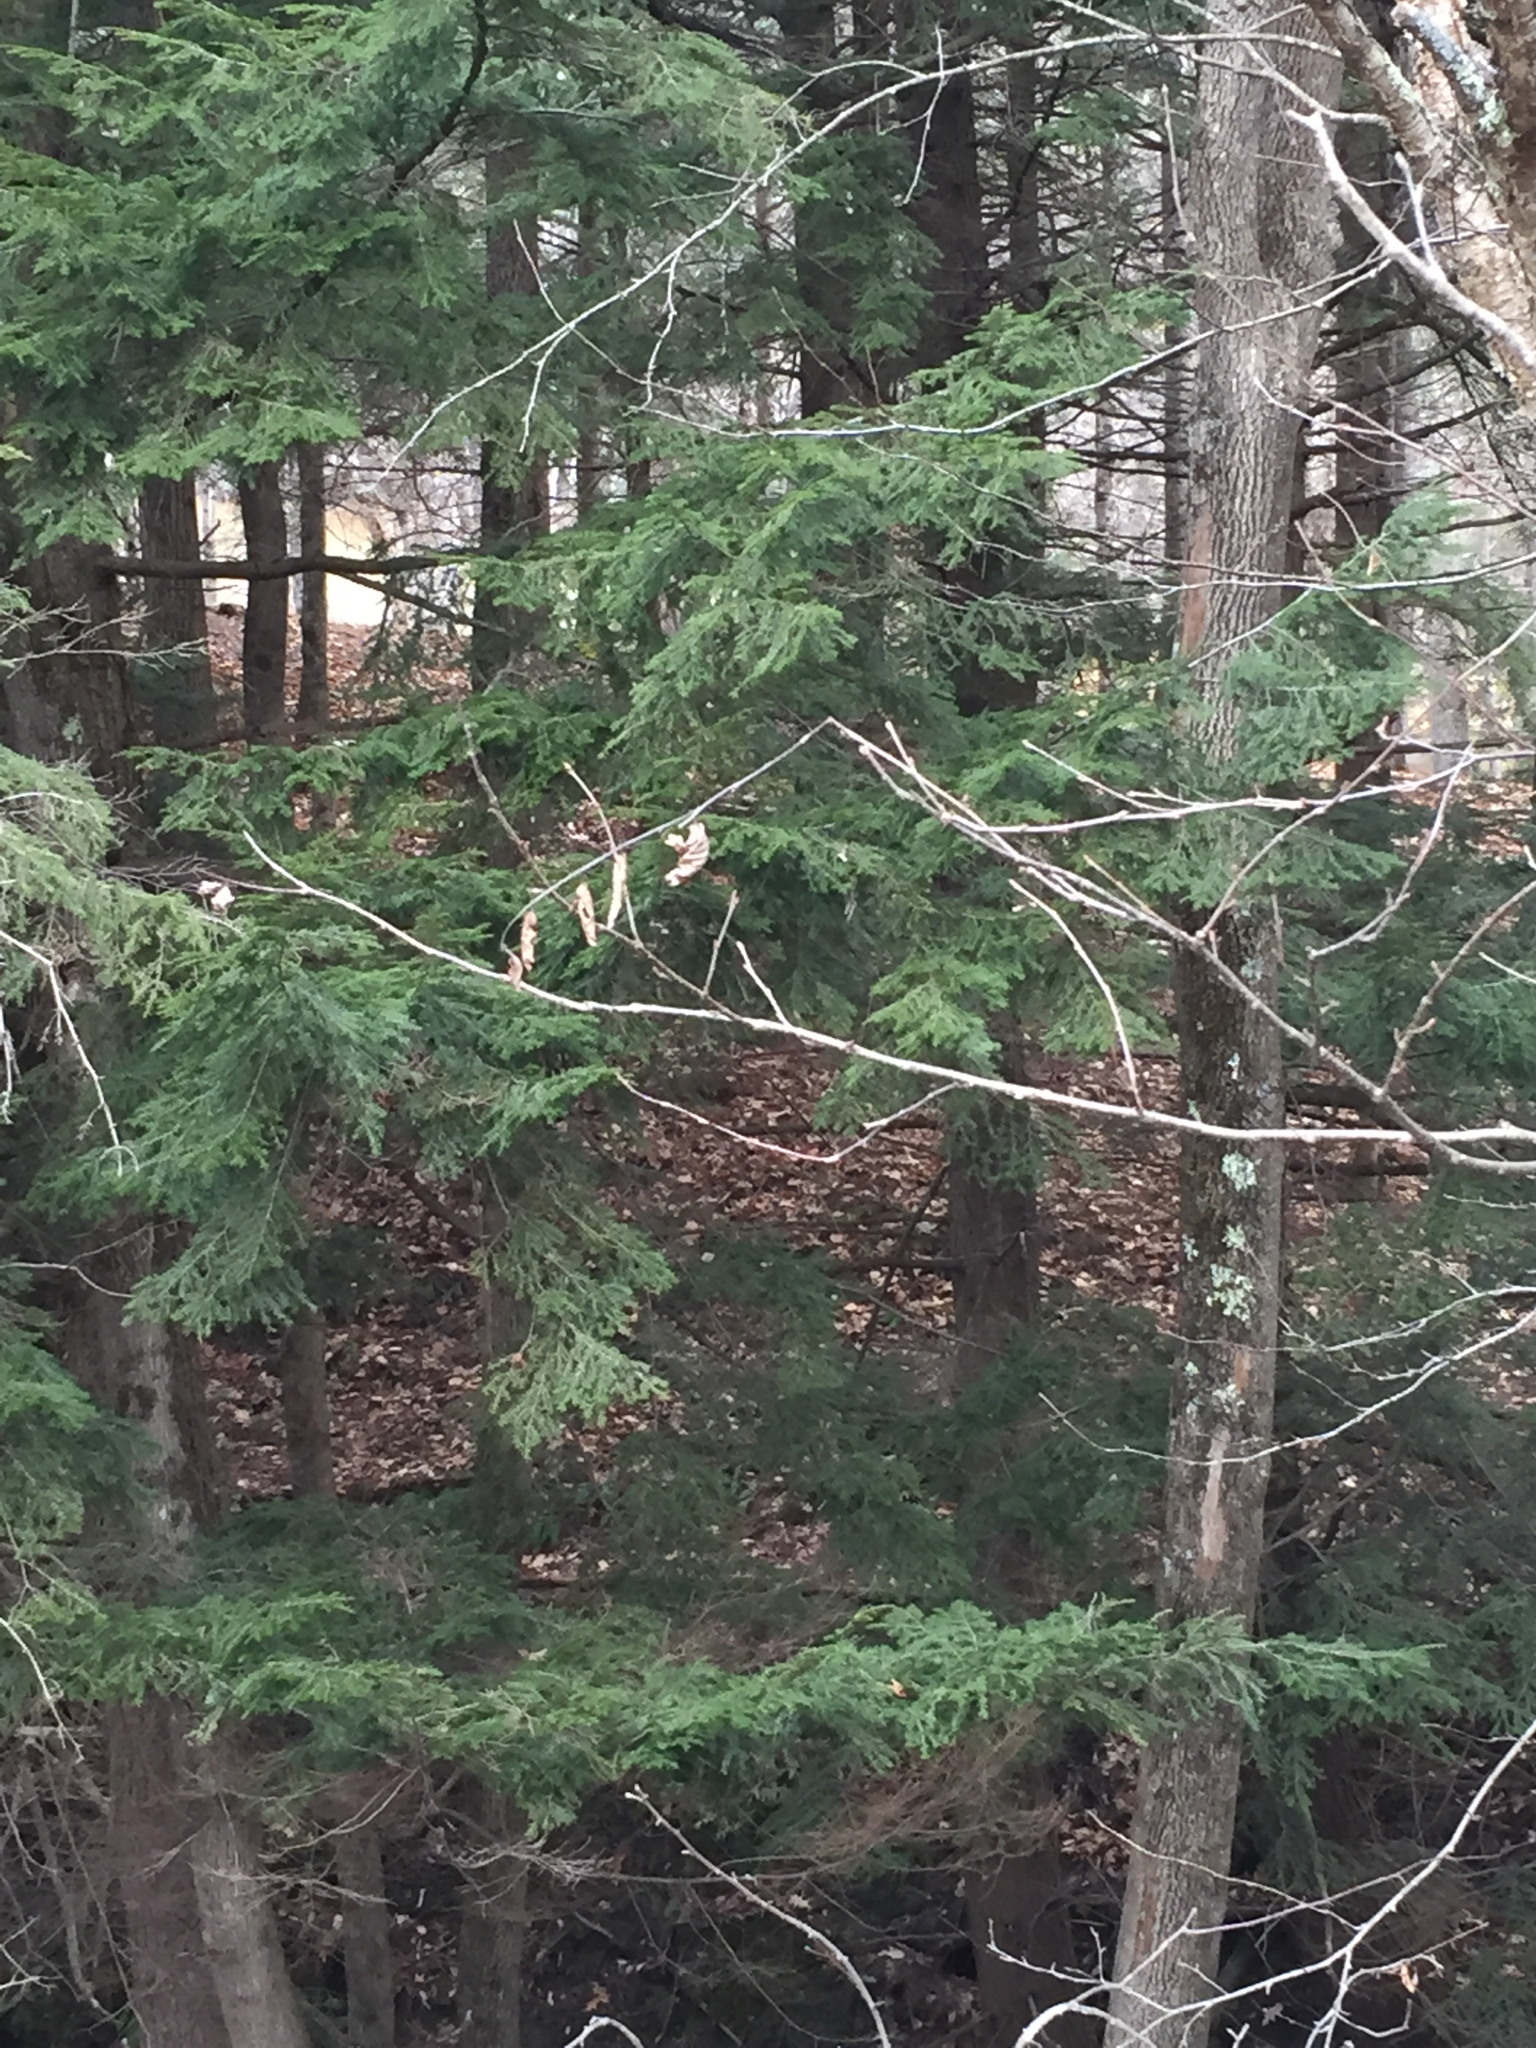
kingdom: Plantae
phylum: Tracheophyta
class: Pinopsida
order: Pinales
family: Pinaceae
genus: Tsuga
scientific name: Tsuga canadensis
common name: Eastern hemlock
